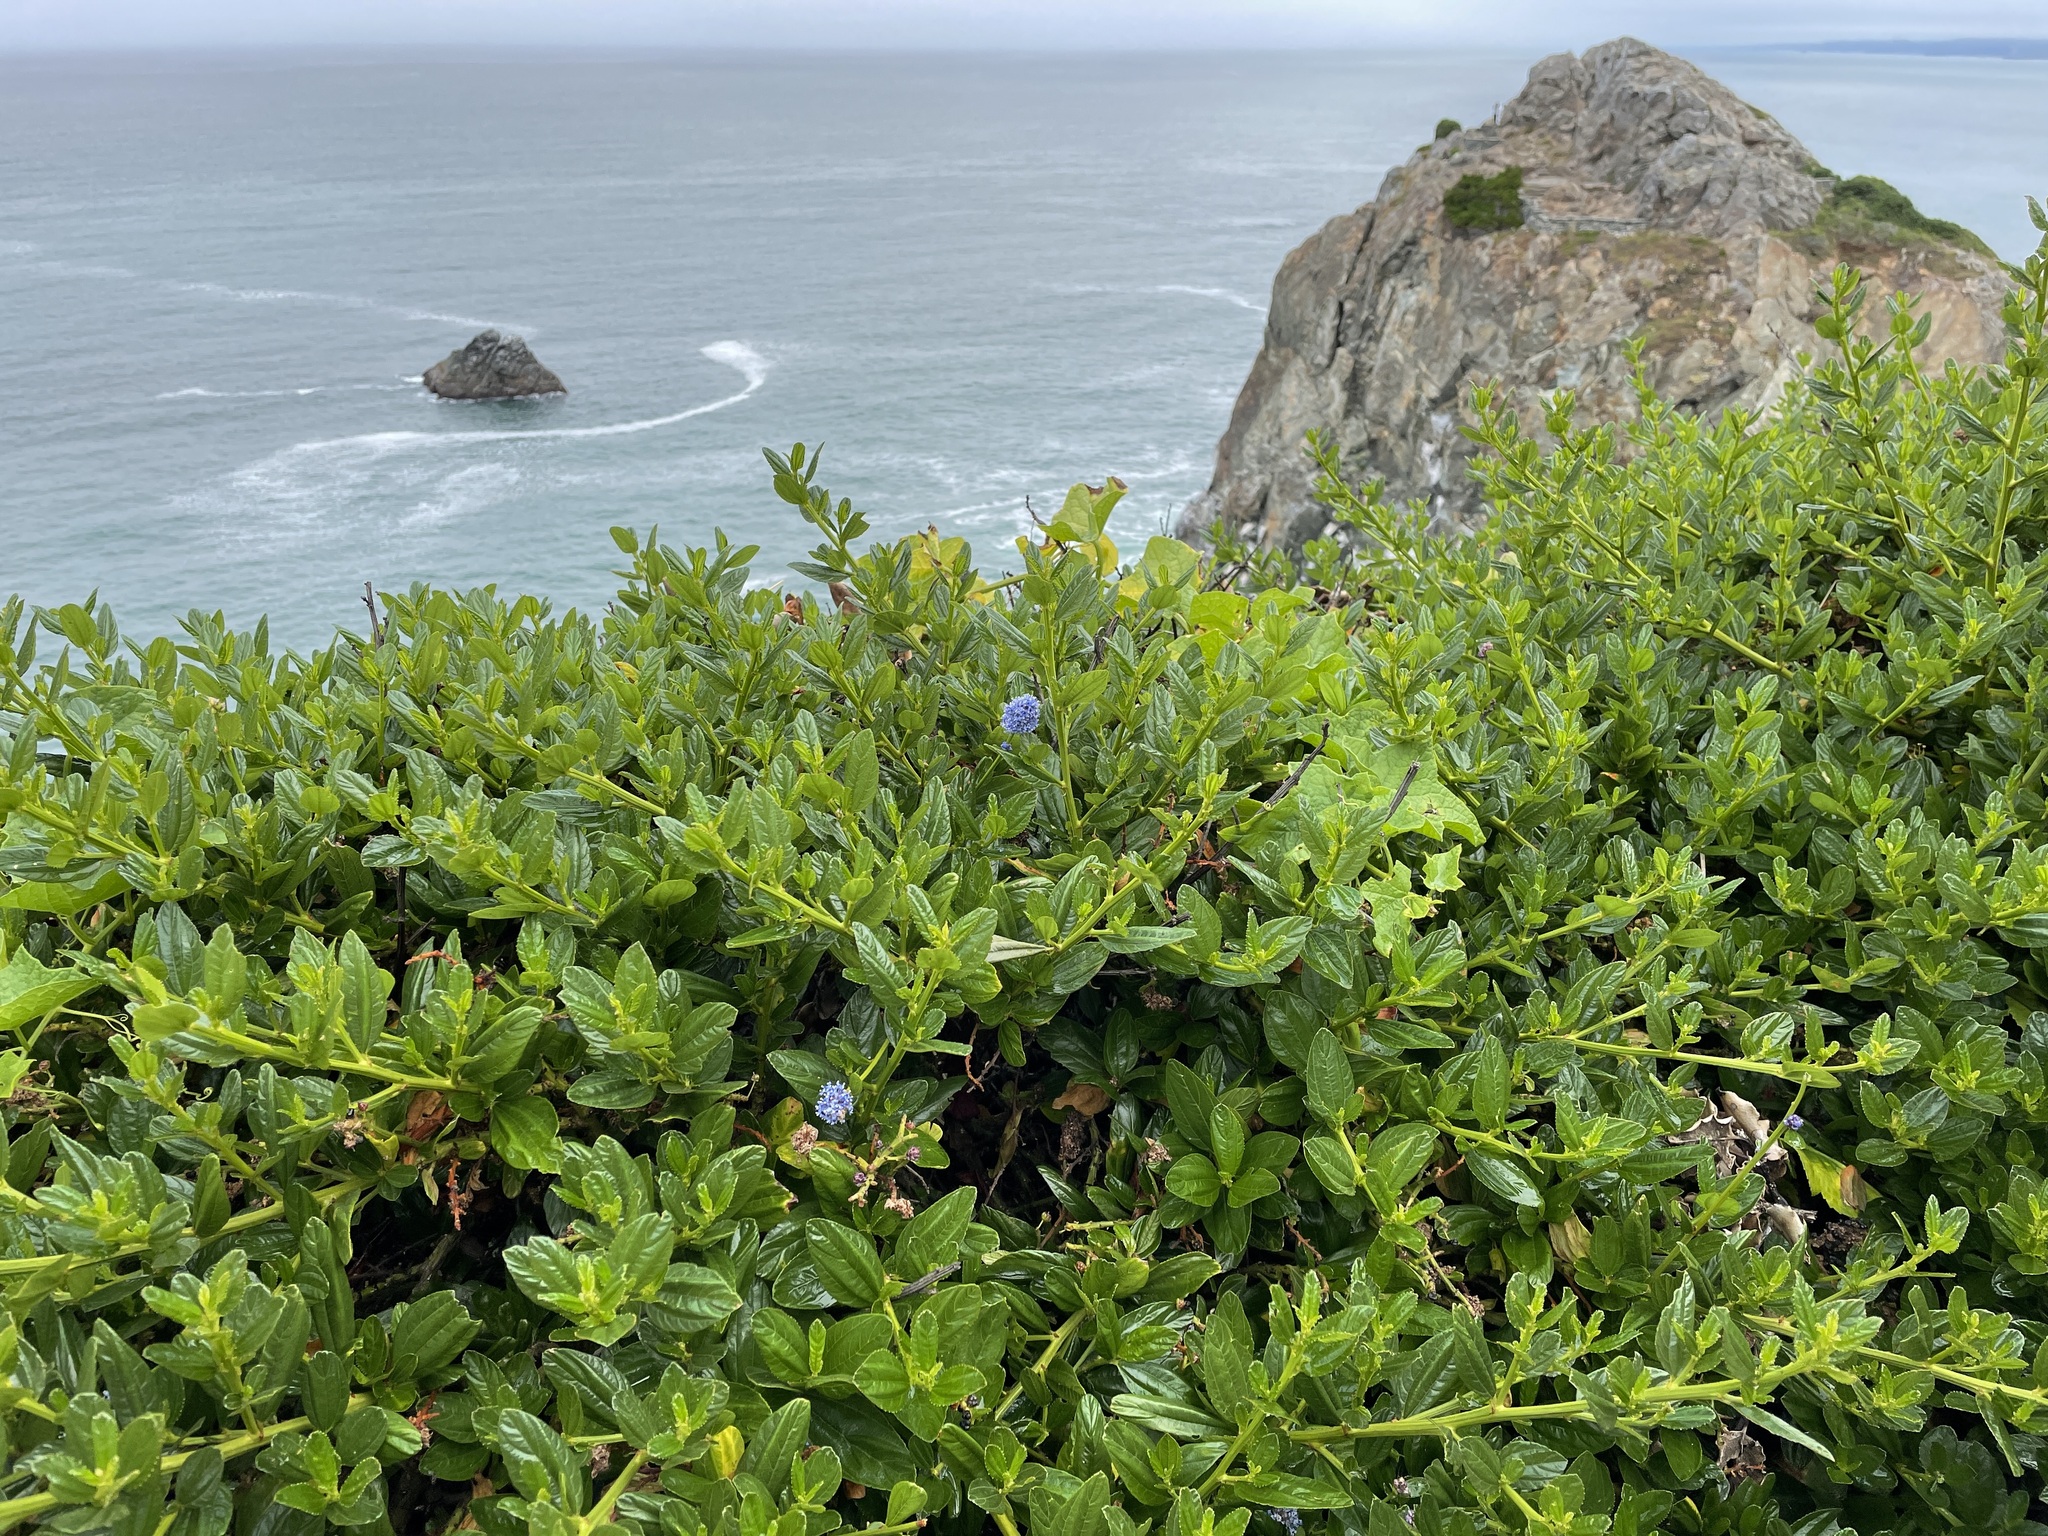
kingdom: Plantae
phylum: Tracheophyta
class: Magnoliopsida
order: Rosales
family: Rhamnaceae
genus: Ceanothus
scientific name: Ceanothus thyrsiflorus
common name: California-lilac
